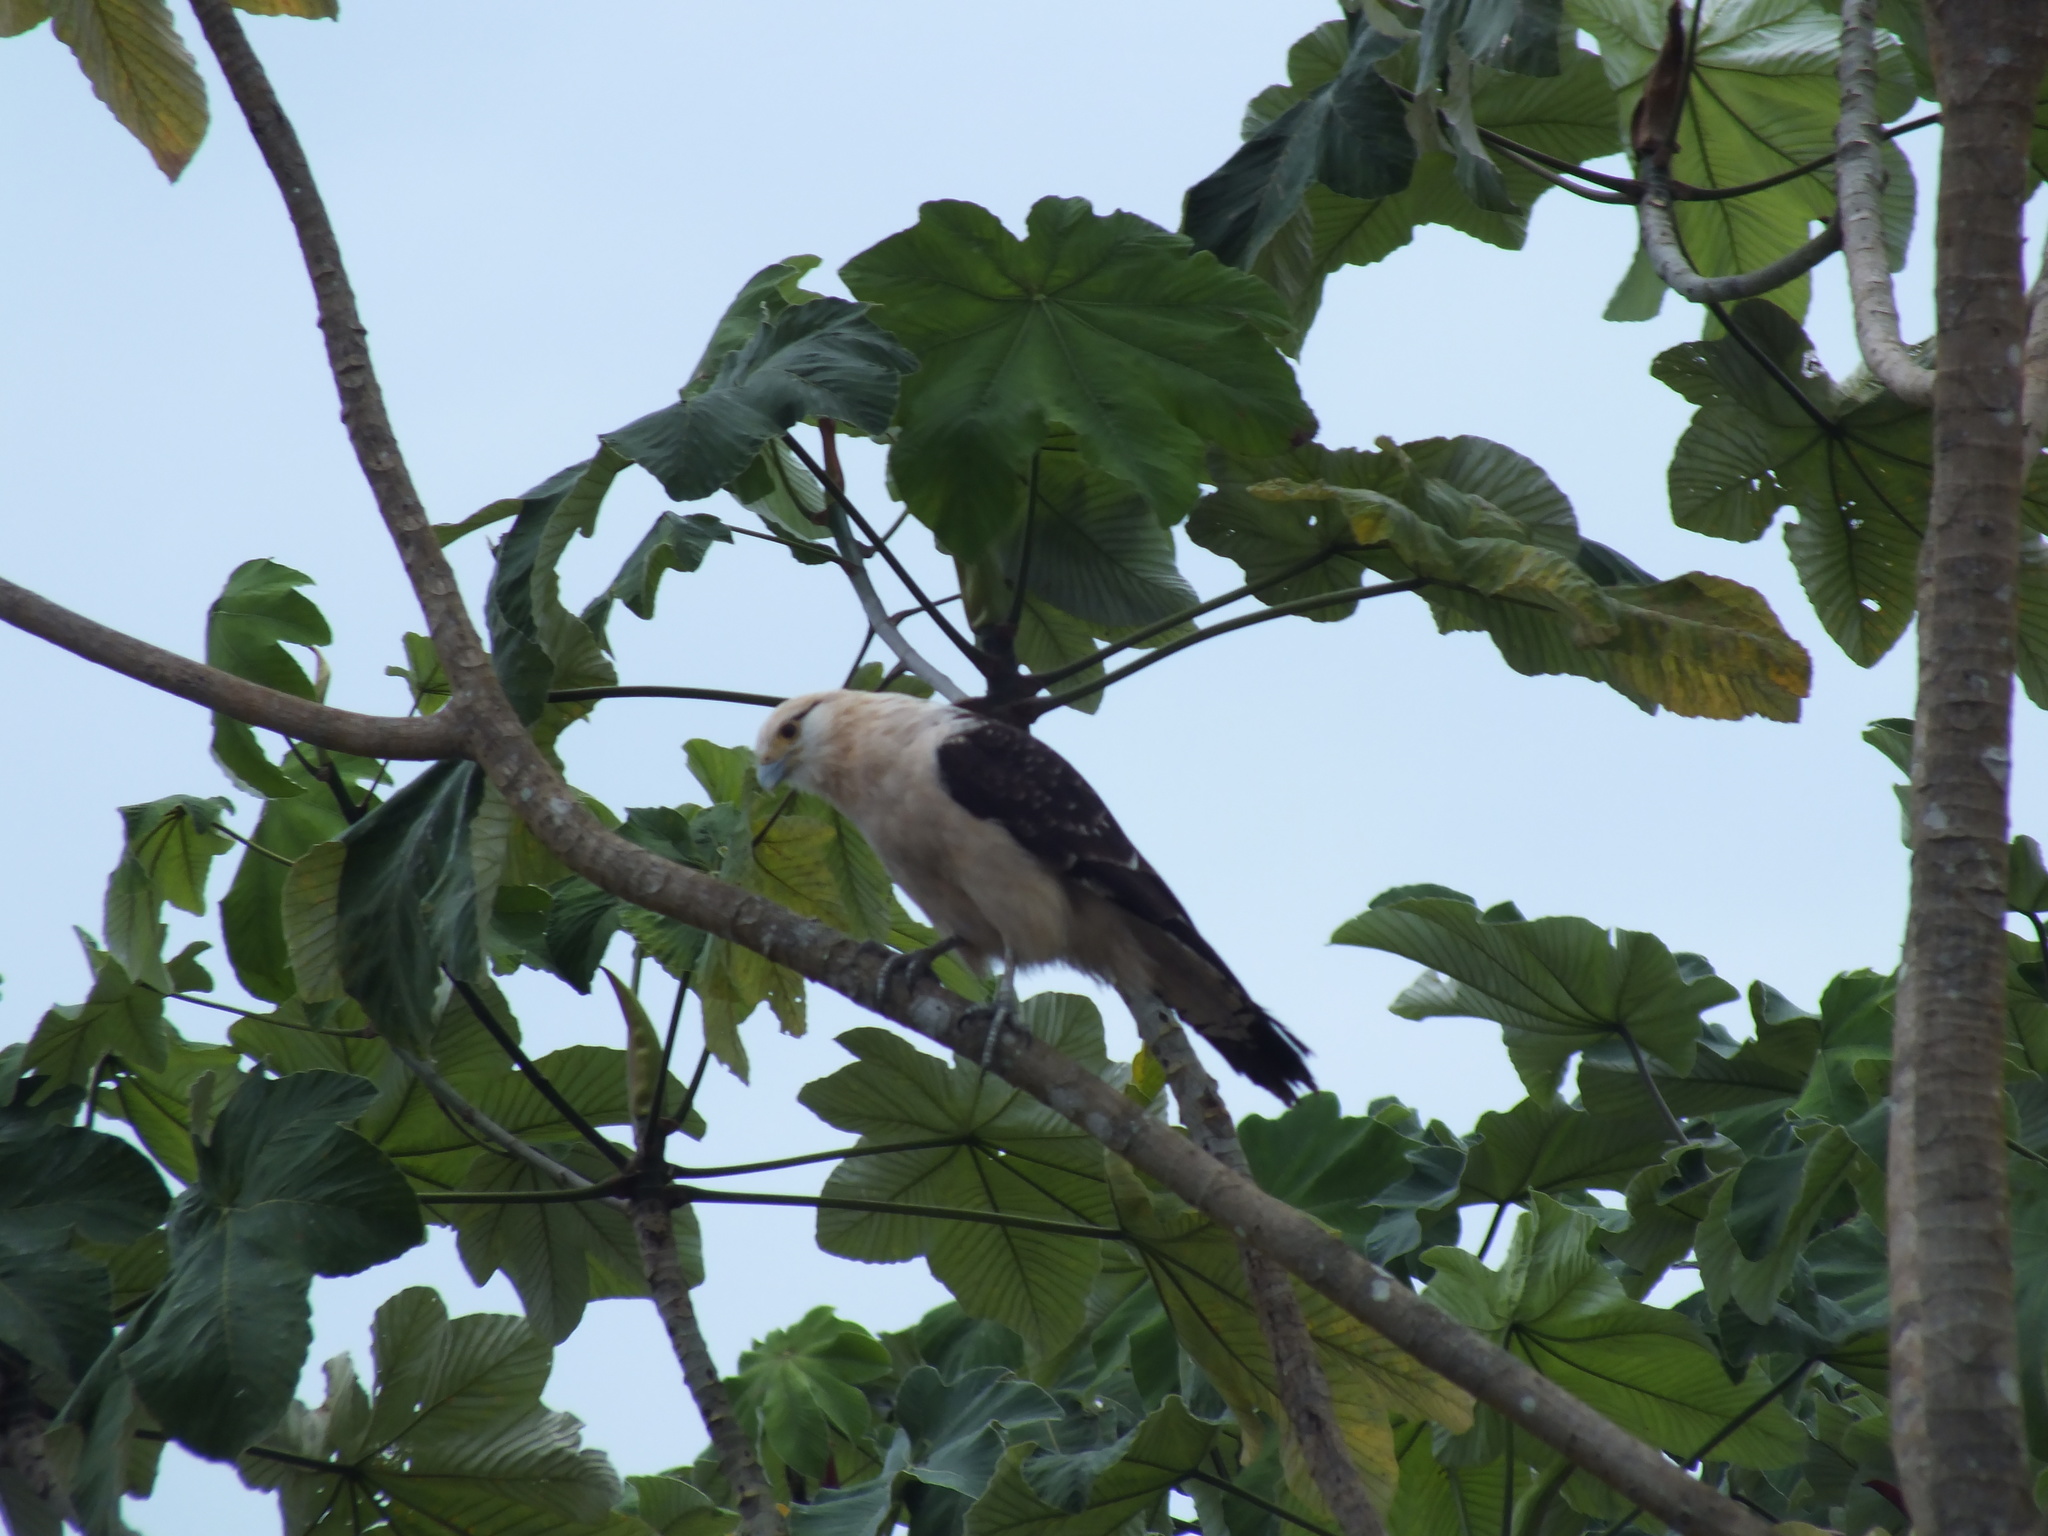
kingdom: Animalia
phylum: Chordata
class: Aves
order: Falconiformes
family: Falconidae
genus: Daptrius
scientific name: Daptrius
